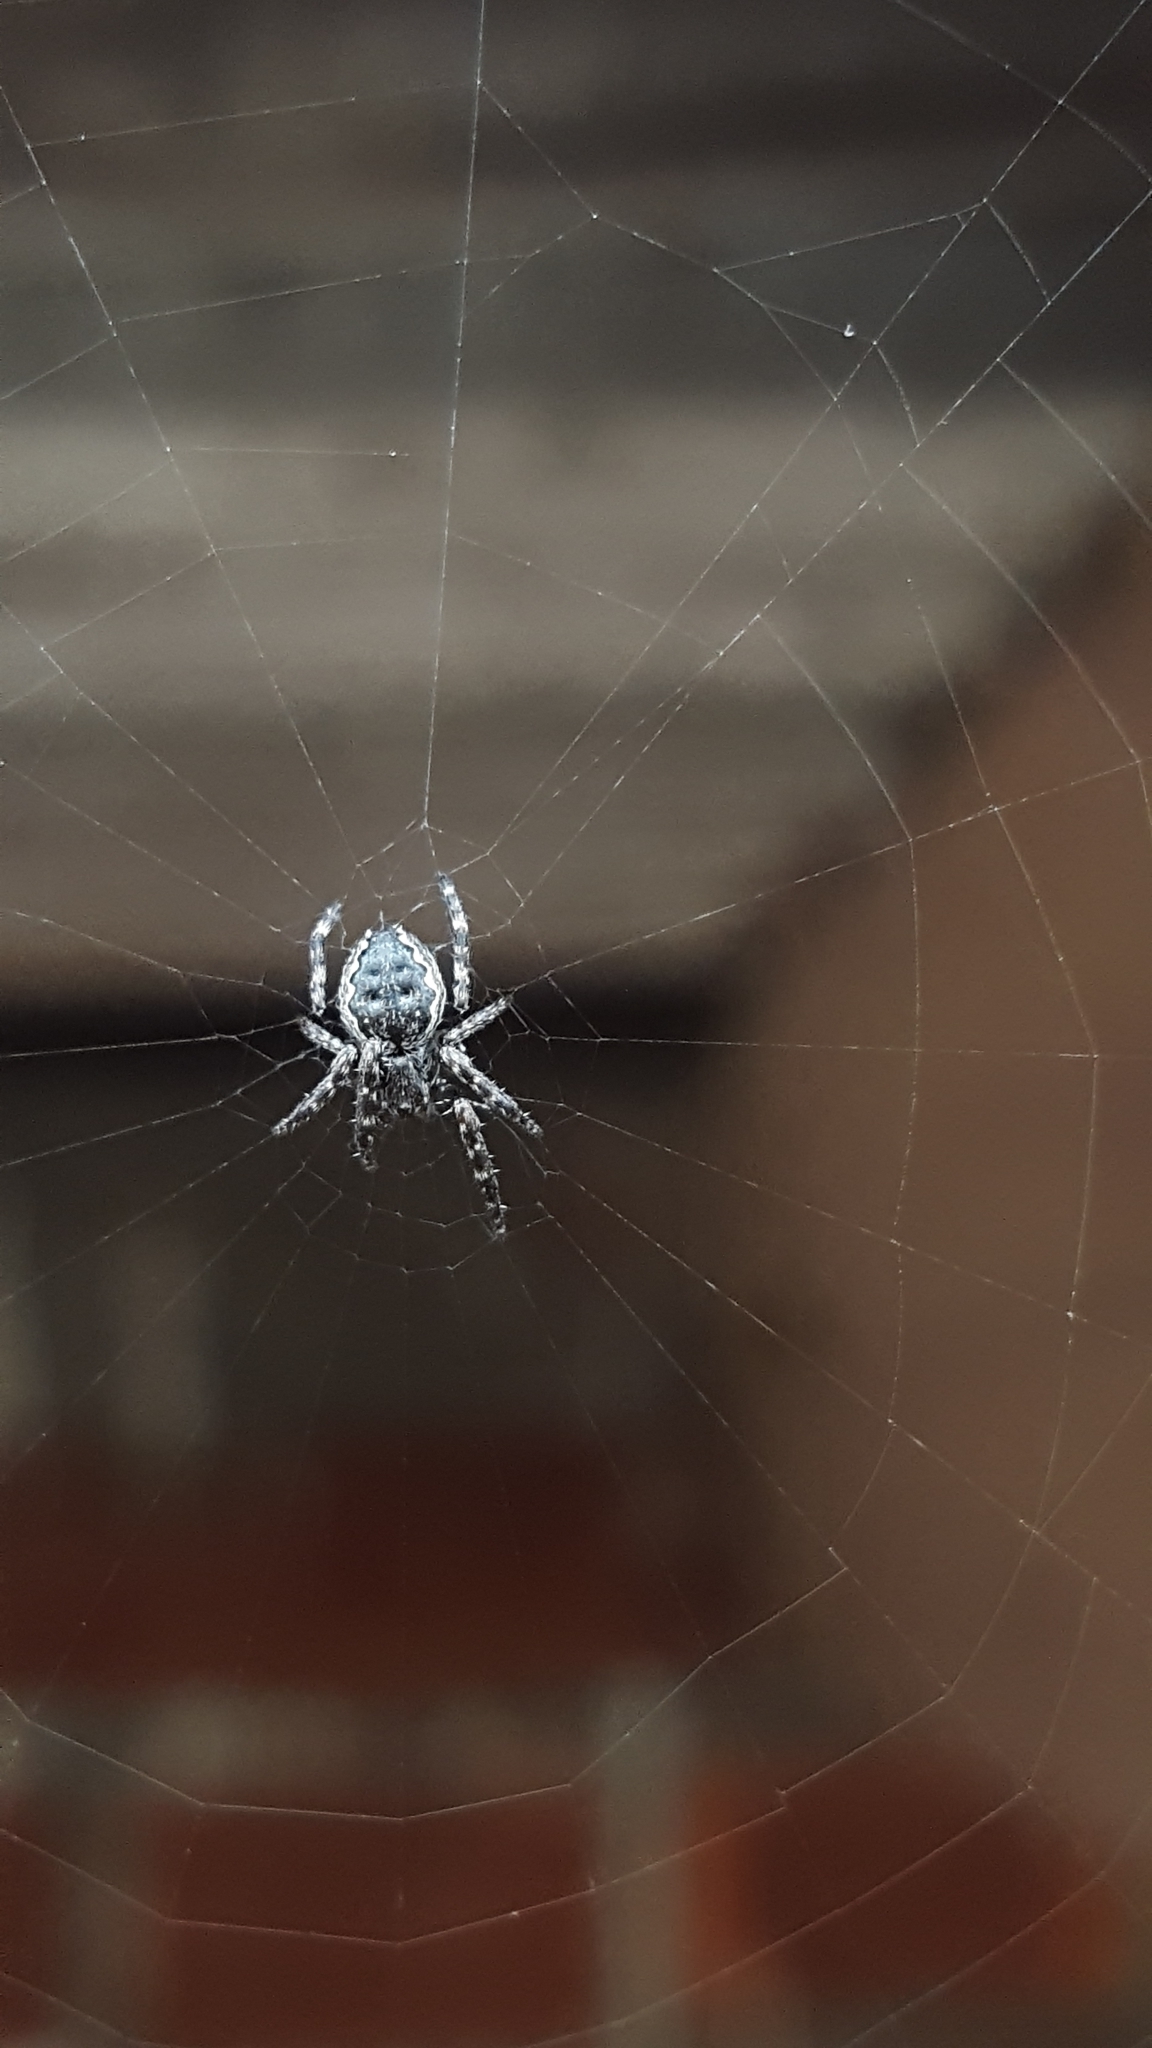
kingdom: Animalia
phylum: Arthropoda
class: Arachnida
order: Araneae
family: Araneidae
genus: Nuctenea
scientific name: Nuctenea umbratica
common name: Toad spider
